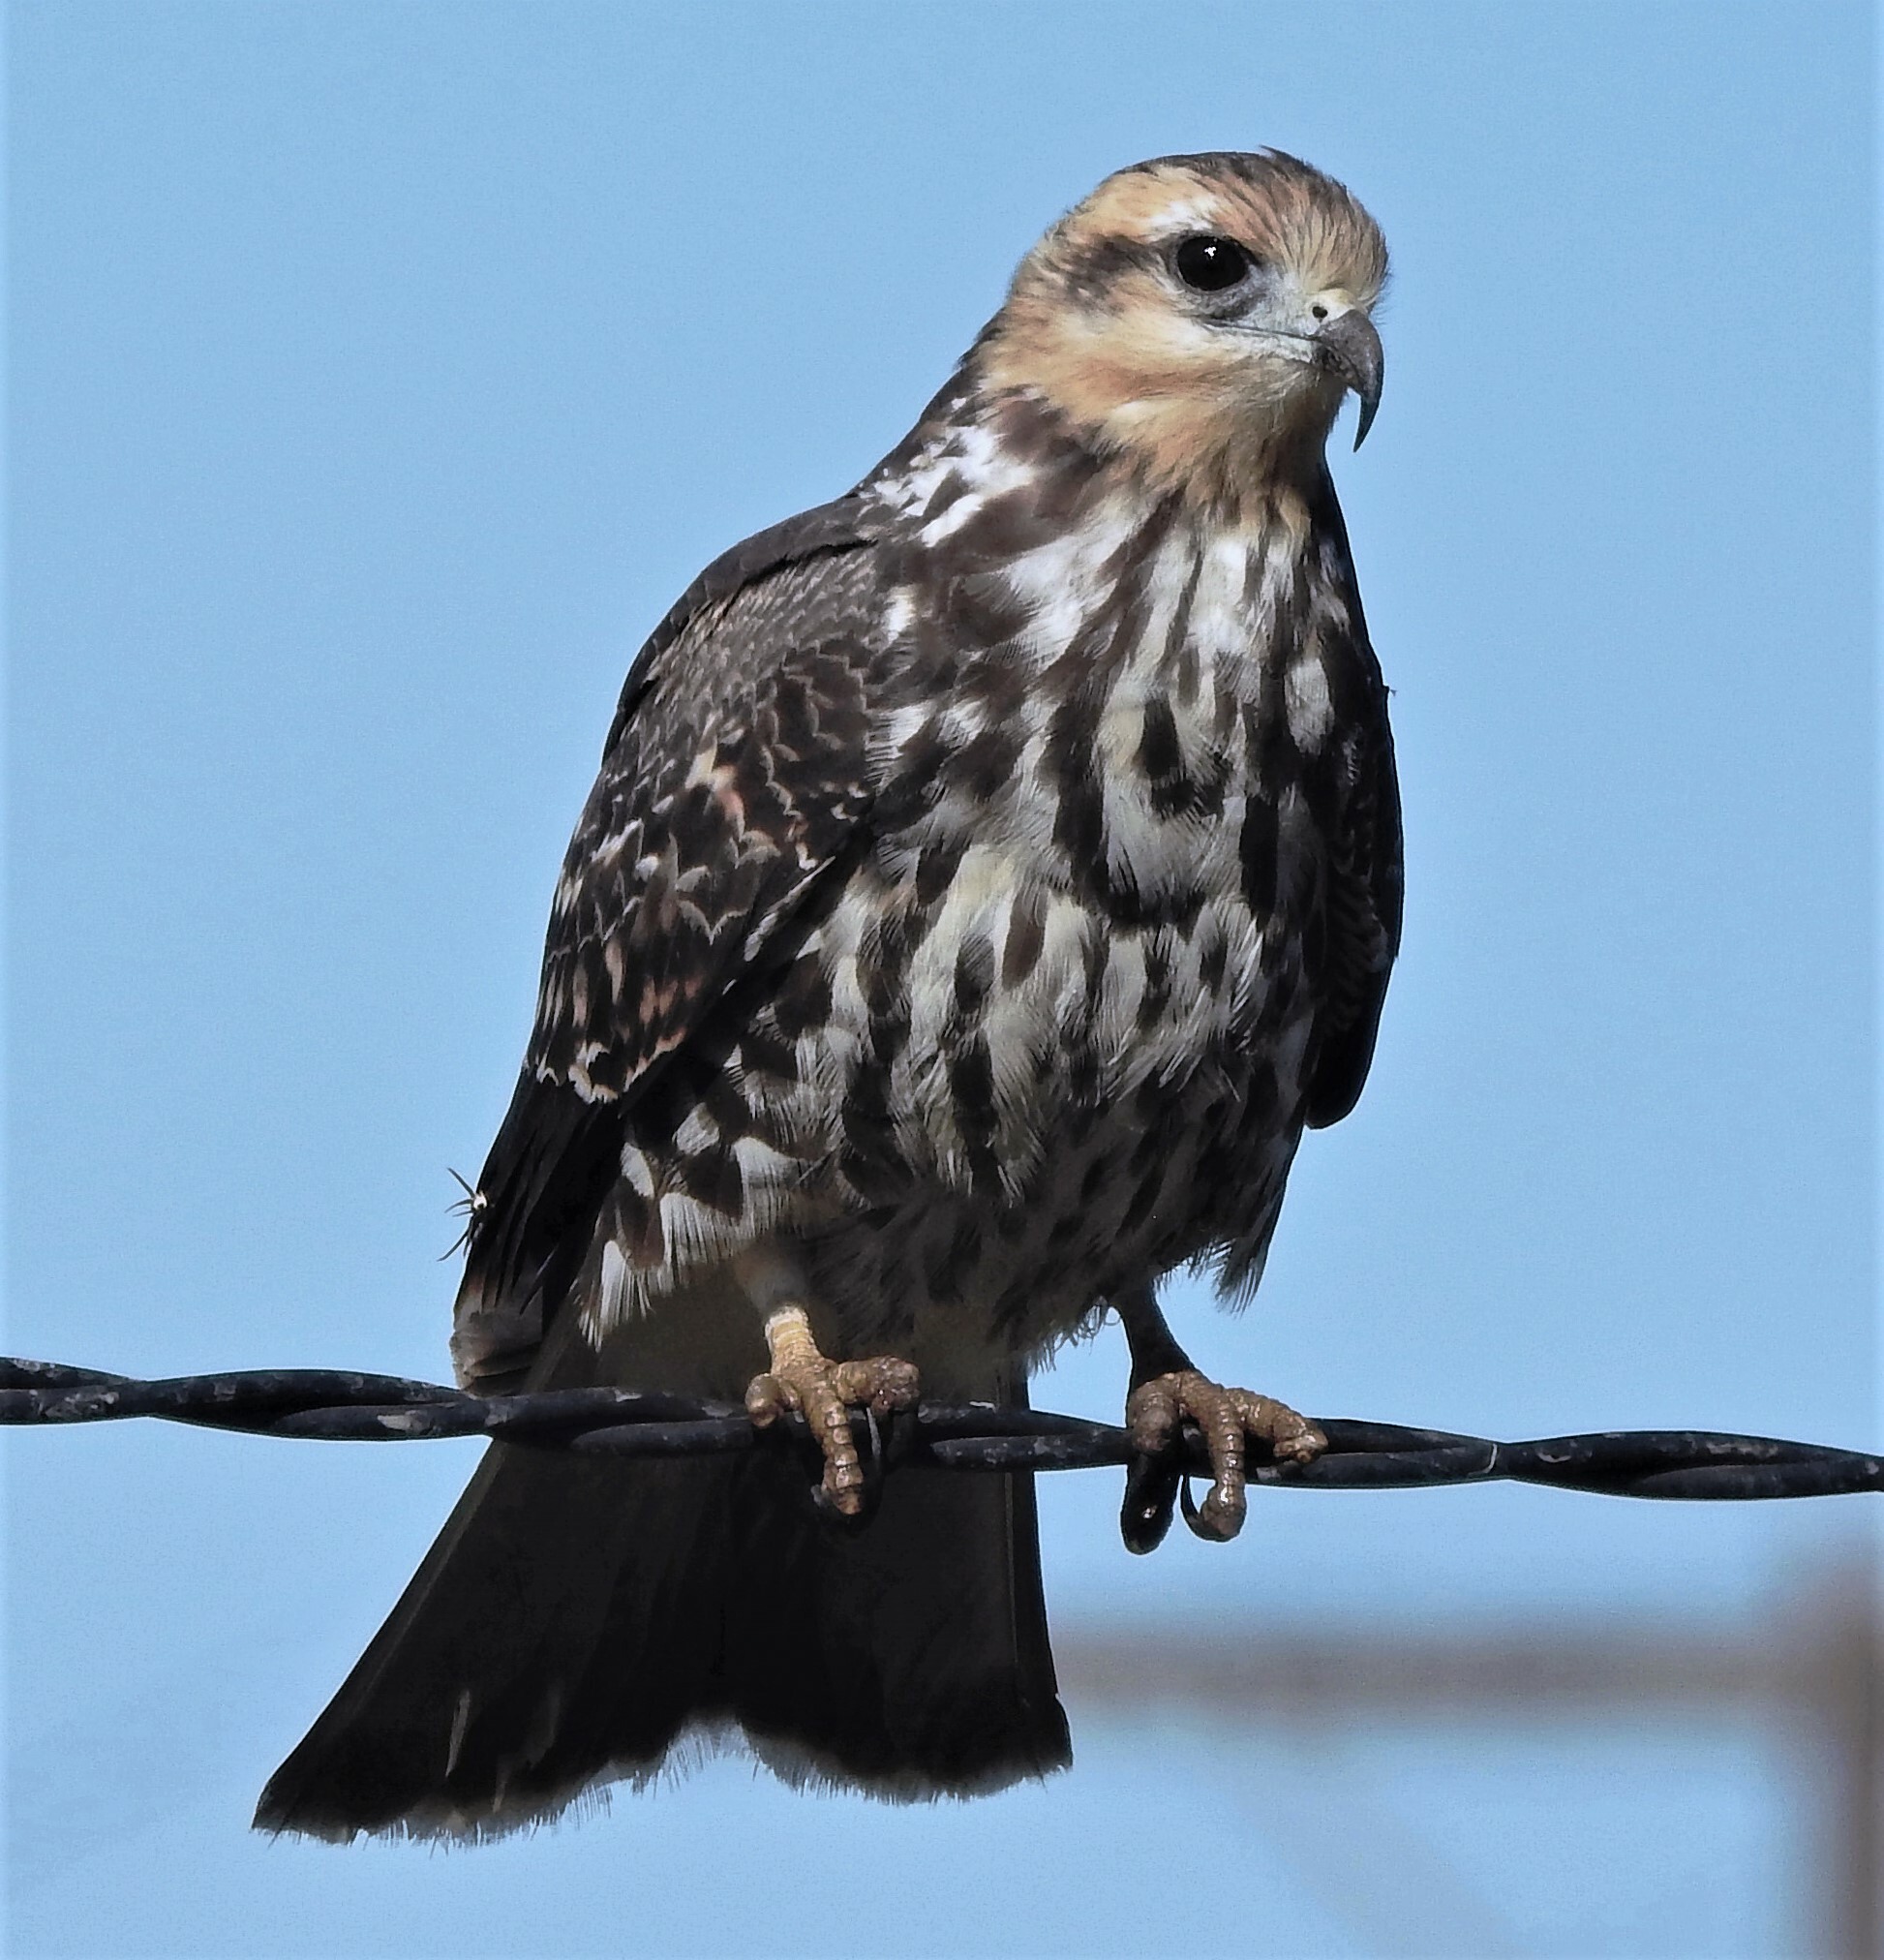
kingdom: Animalia
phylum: Chordata
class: Aves
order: Accipitriformes
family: Accipitridae
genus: Rostrhamus
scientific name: Rostrhamus sociabilis
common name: Snail kite
